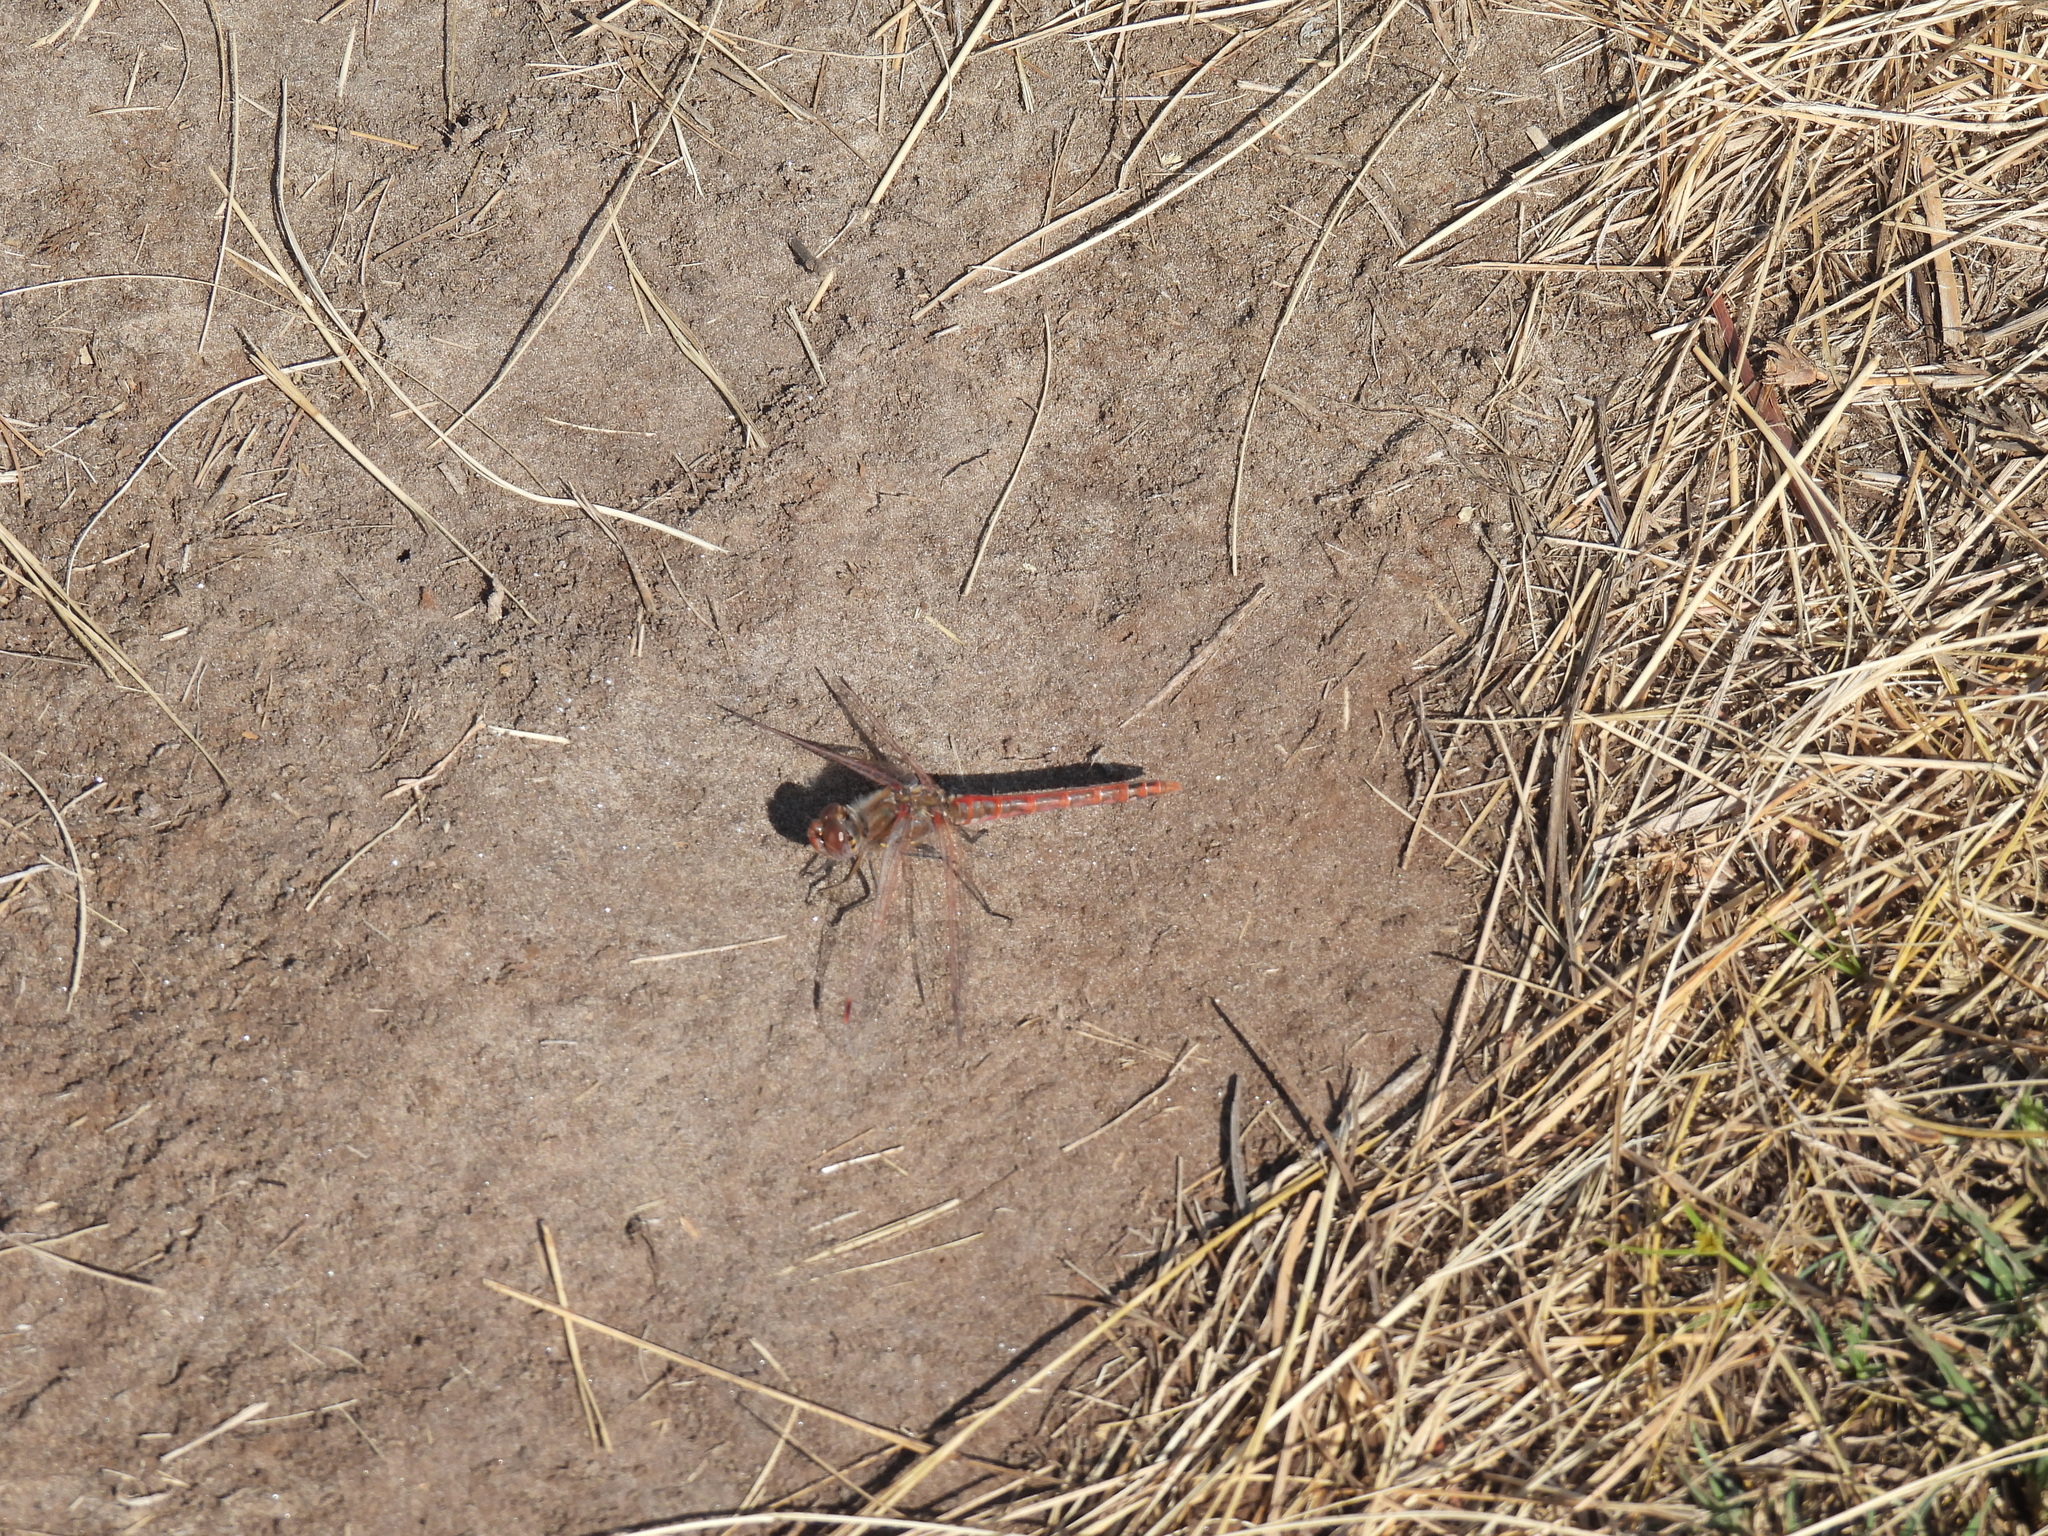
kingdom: Animalia
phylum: Arthropoda
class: Insecta
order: Odonata
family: Libellulidae
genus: Sympetrum
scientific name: Sympetrum corruptum
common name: Variegated meadowhawk
